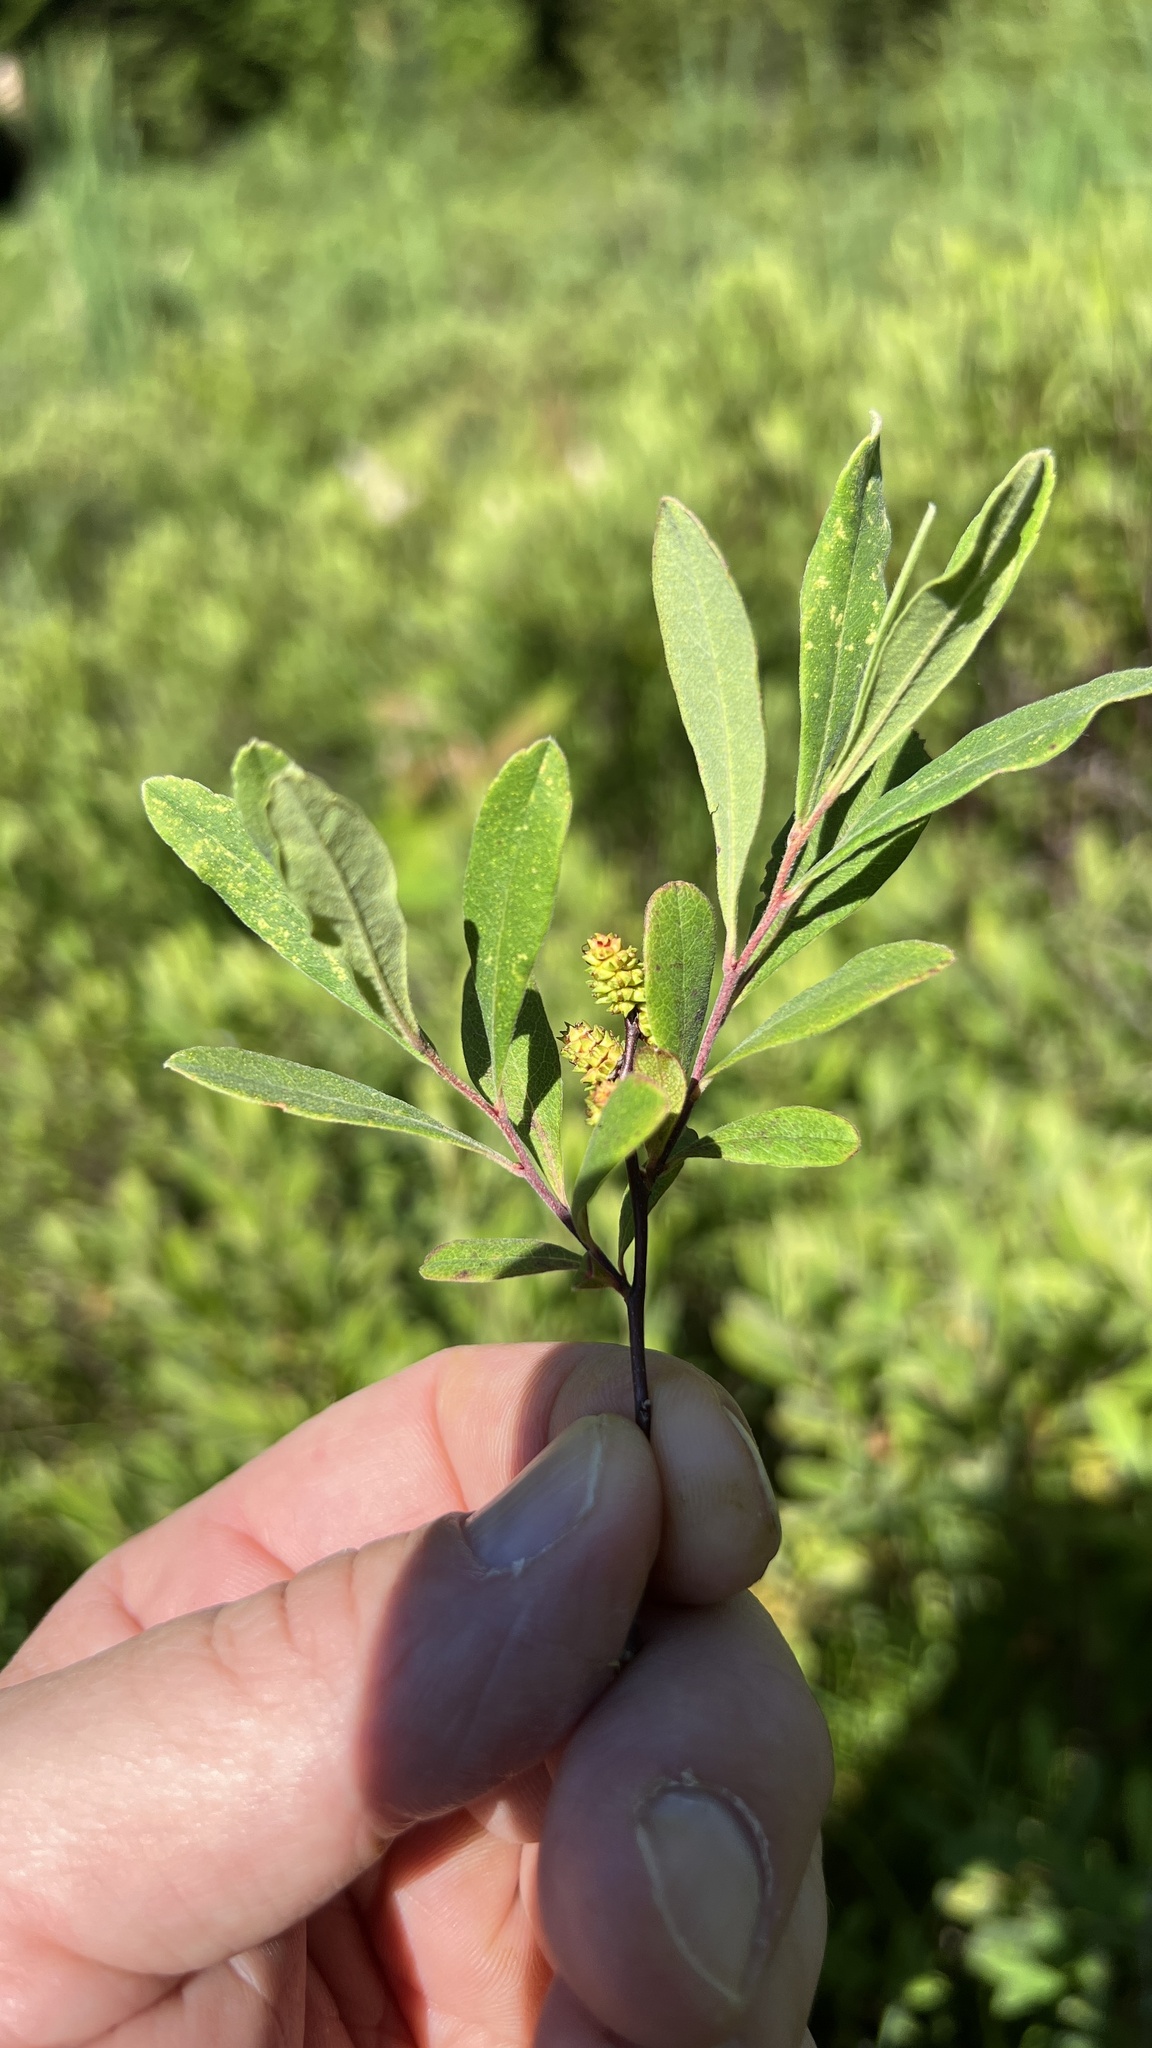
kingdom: Plantae
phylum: Tracheophyta
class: Magnoliopsida
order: Fagales
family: Myricaceae
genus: Myrica
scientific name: Myrica gale
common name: Sweet gale
